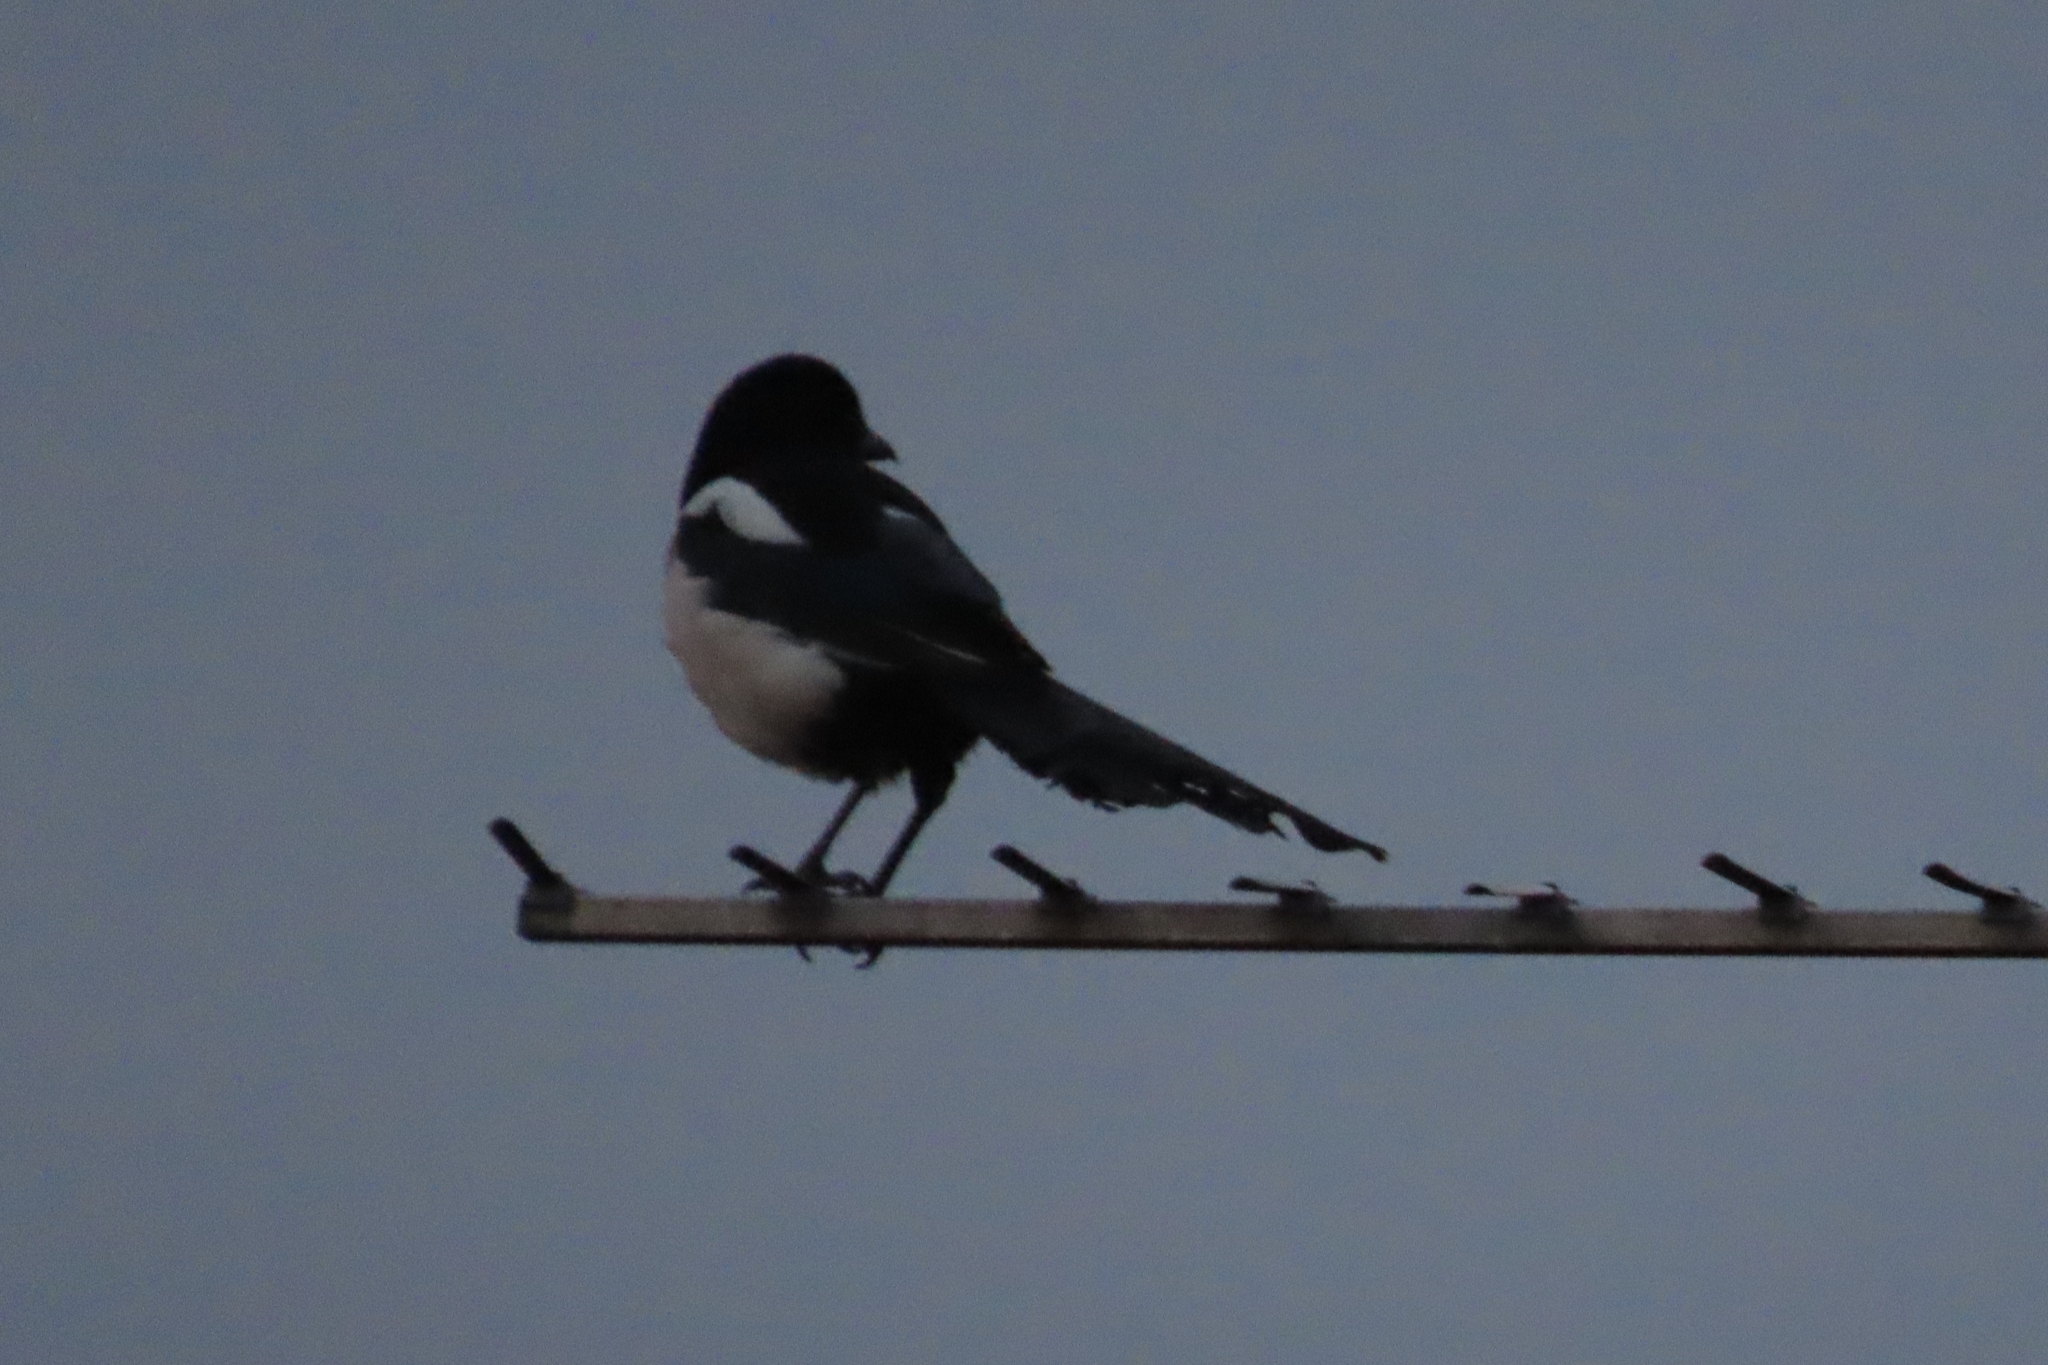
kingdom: Animalia
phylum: Chordata
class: Aves
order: Passeriformes
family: Corvidae
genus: Pica
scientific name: Pica pica
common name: Eurasian magpie
